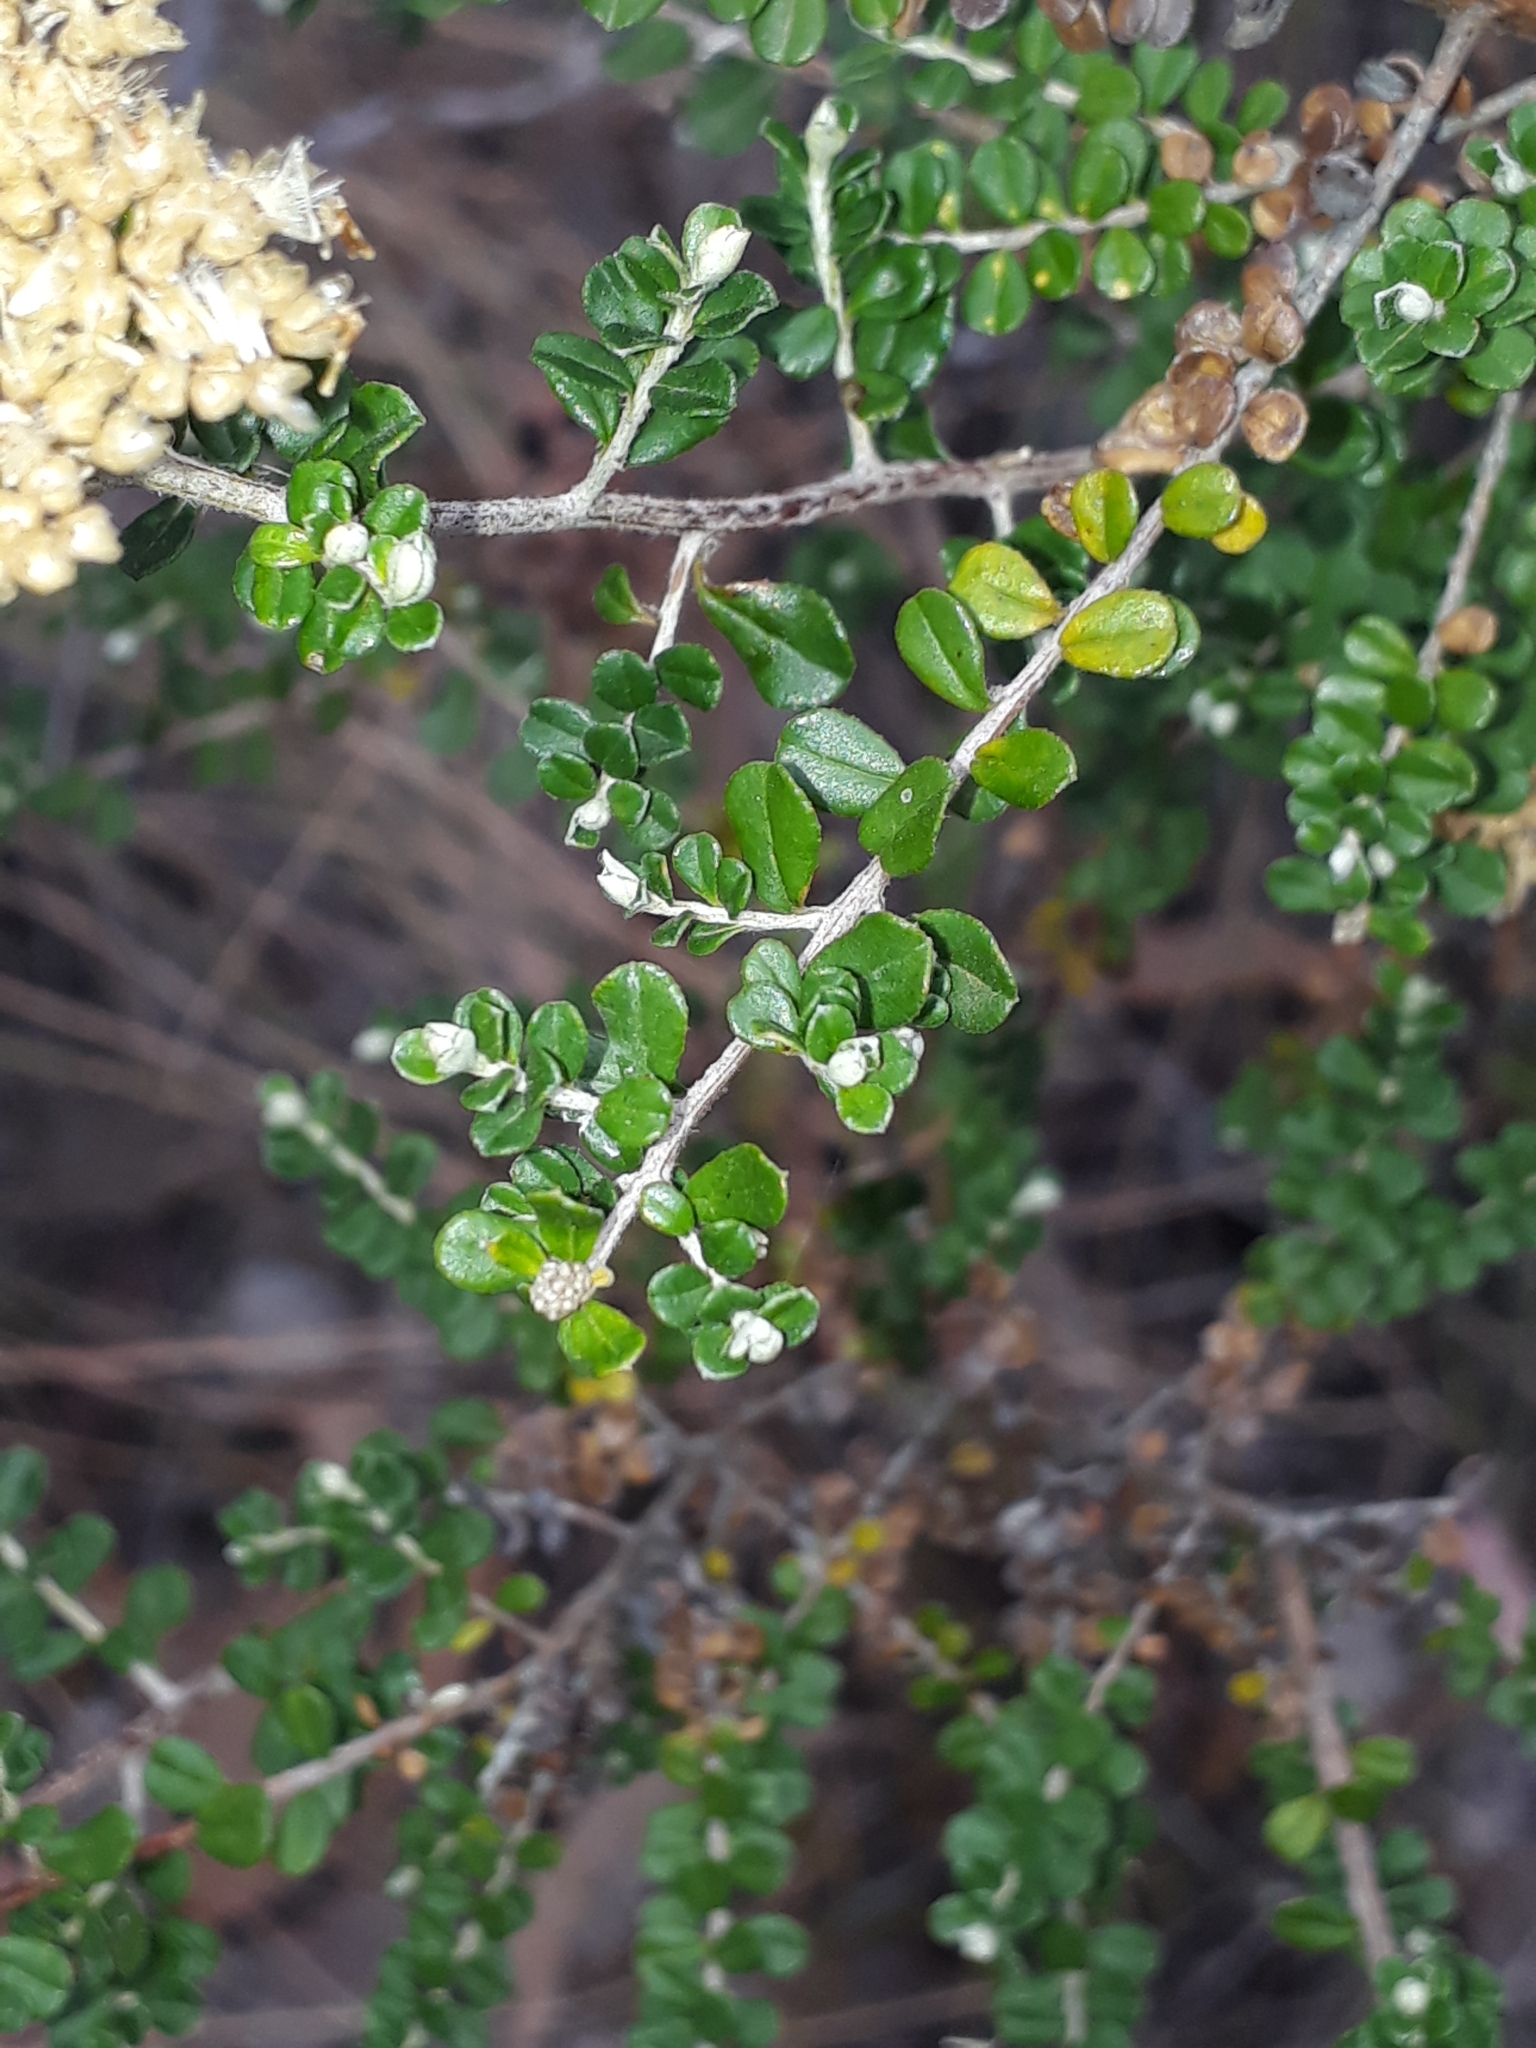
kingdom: Plantae
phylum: Tracheophyta
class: Magnoliopsida
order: Asterales
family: Asteraceae
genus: Ozothamnus
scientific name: Ozothamnus obcordatus
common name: Grey everlasting
